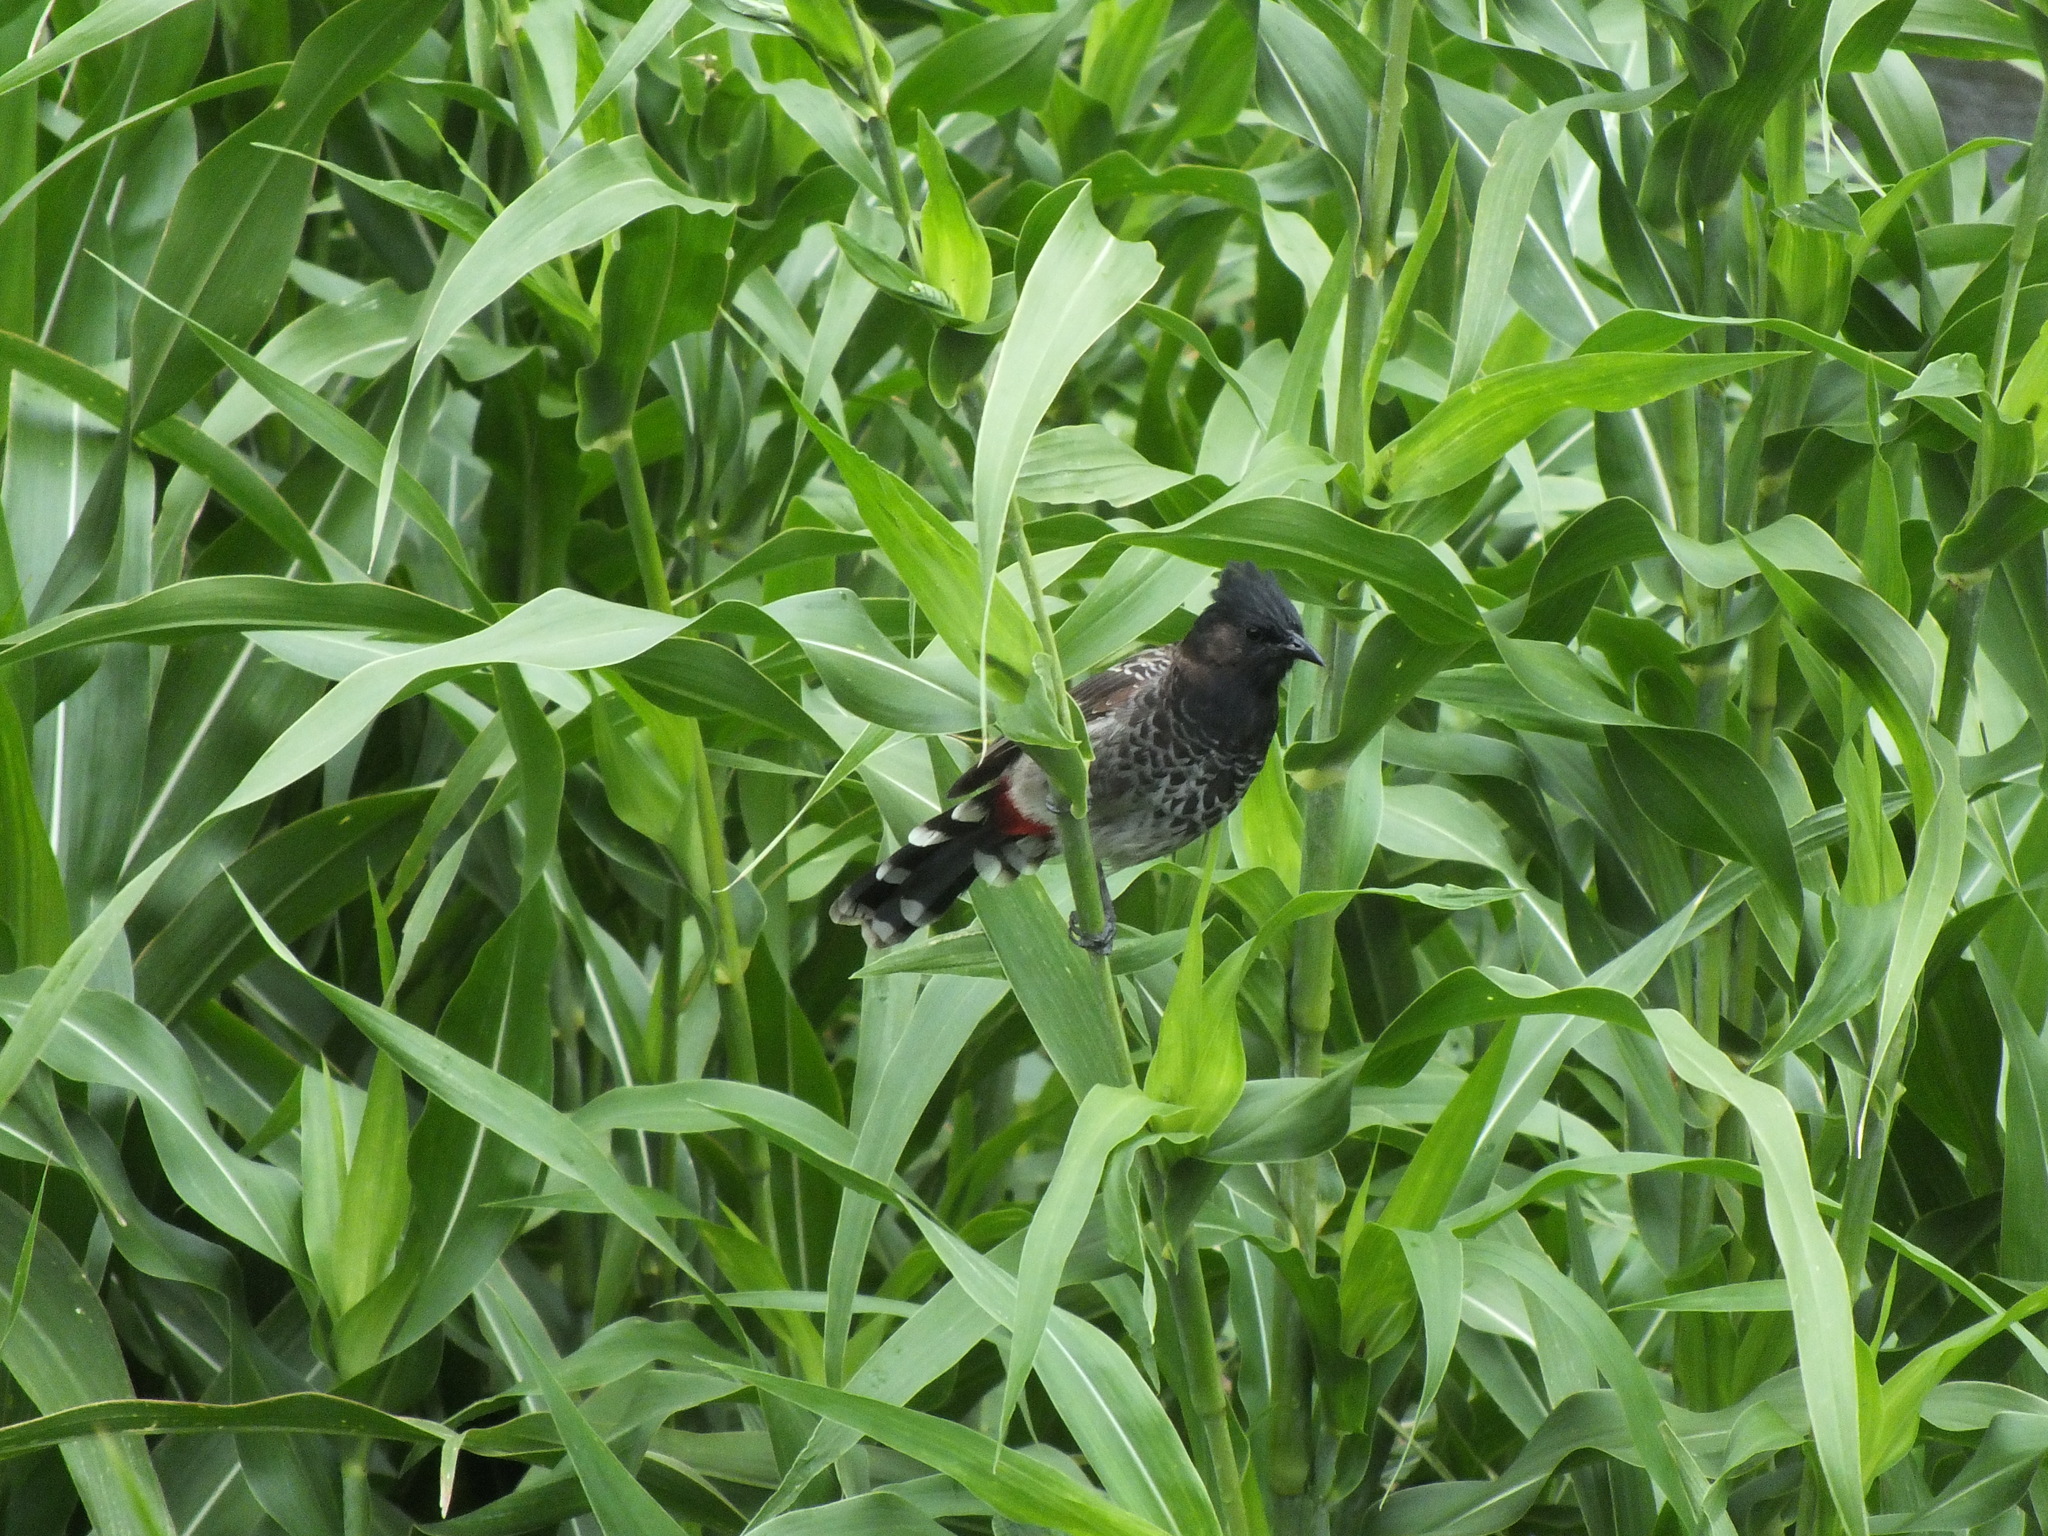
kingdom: Animalia
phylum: Chordata
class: Aves
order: Passeriformes
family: Pycnonotidae
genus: Pycnonotus
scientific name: Pycnonotus cafer
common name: Red-vented bulbul
